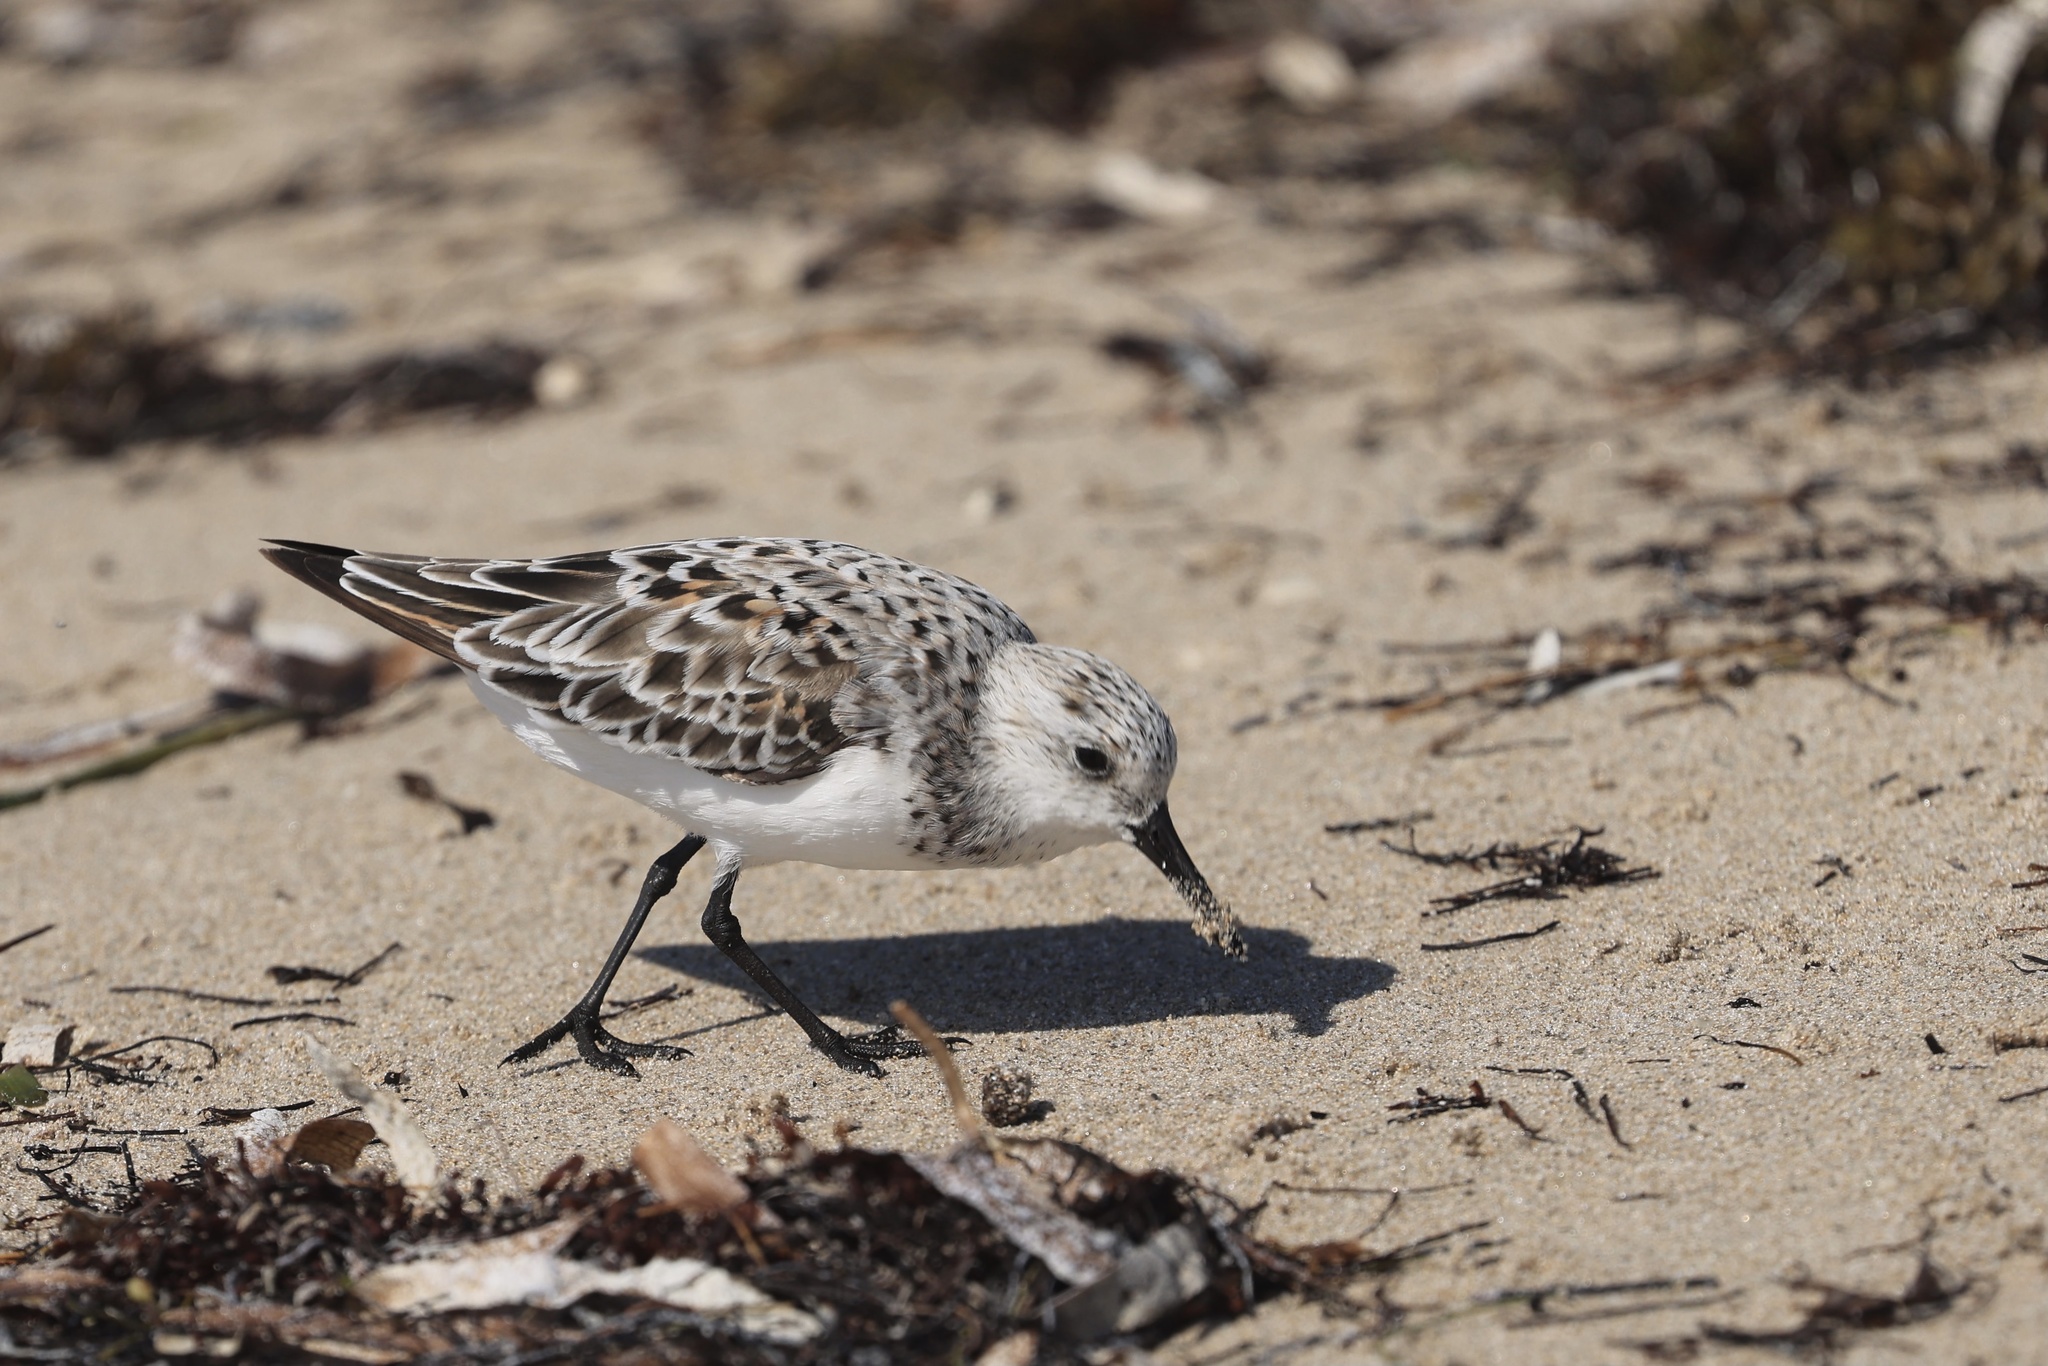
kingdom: Animalia
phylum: Chordata
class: Aves
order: Charadriiformes
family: Scolopacidae
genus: Calidris
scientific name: Calidris alba
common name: Sanderling
